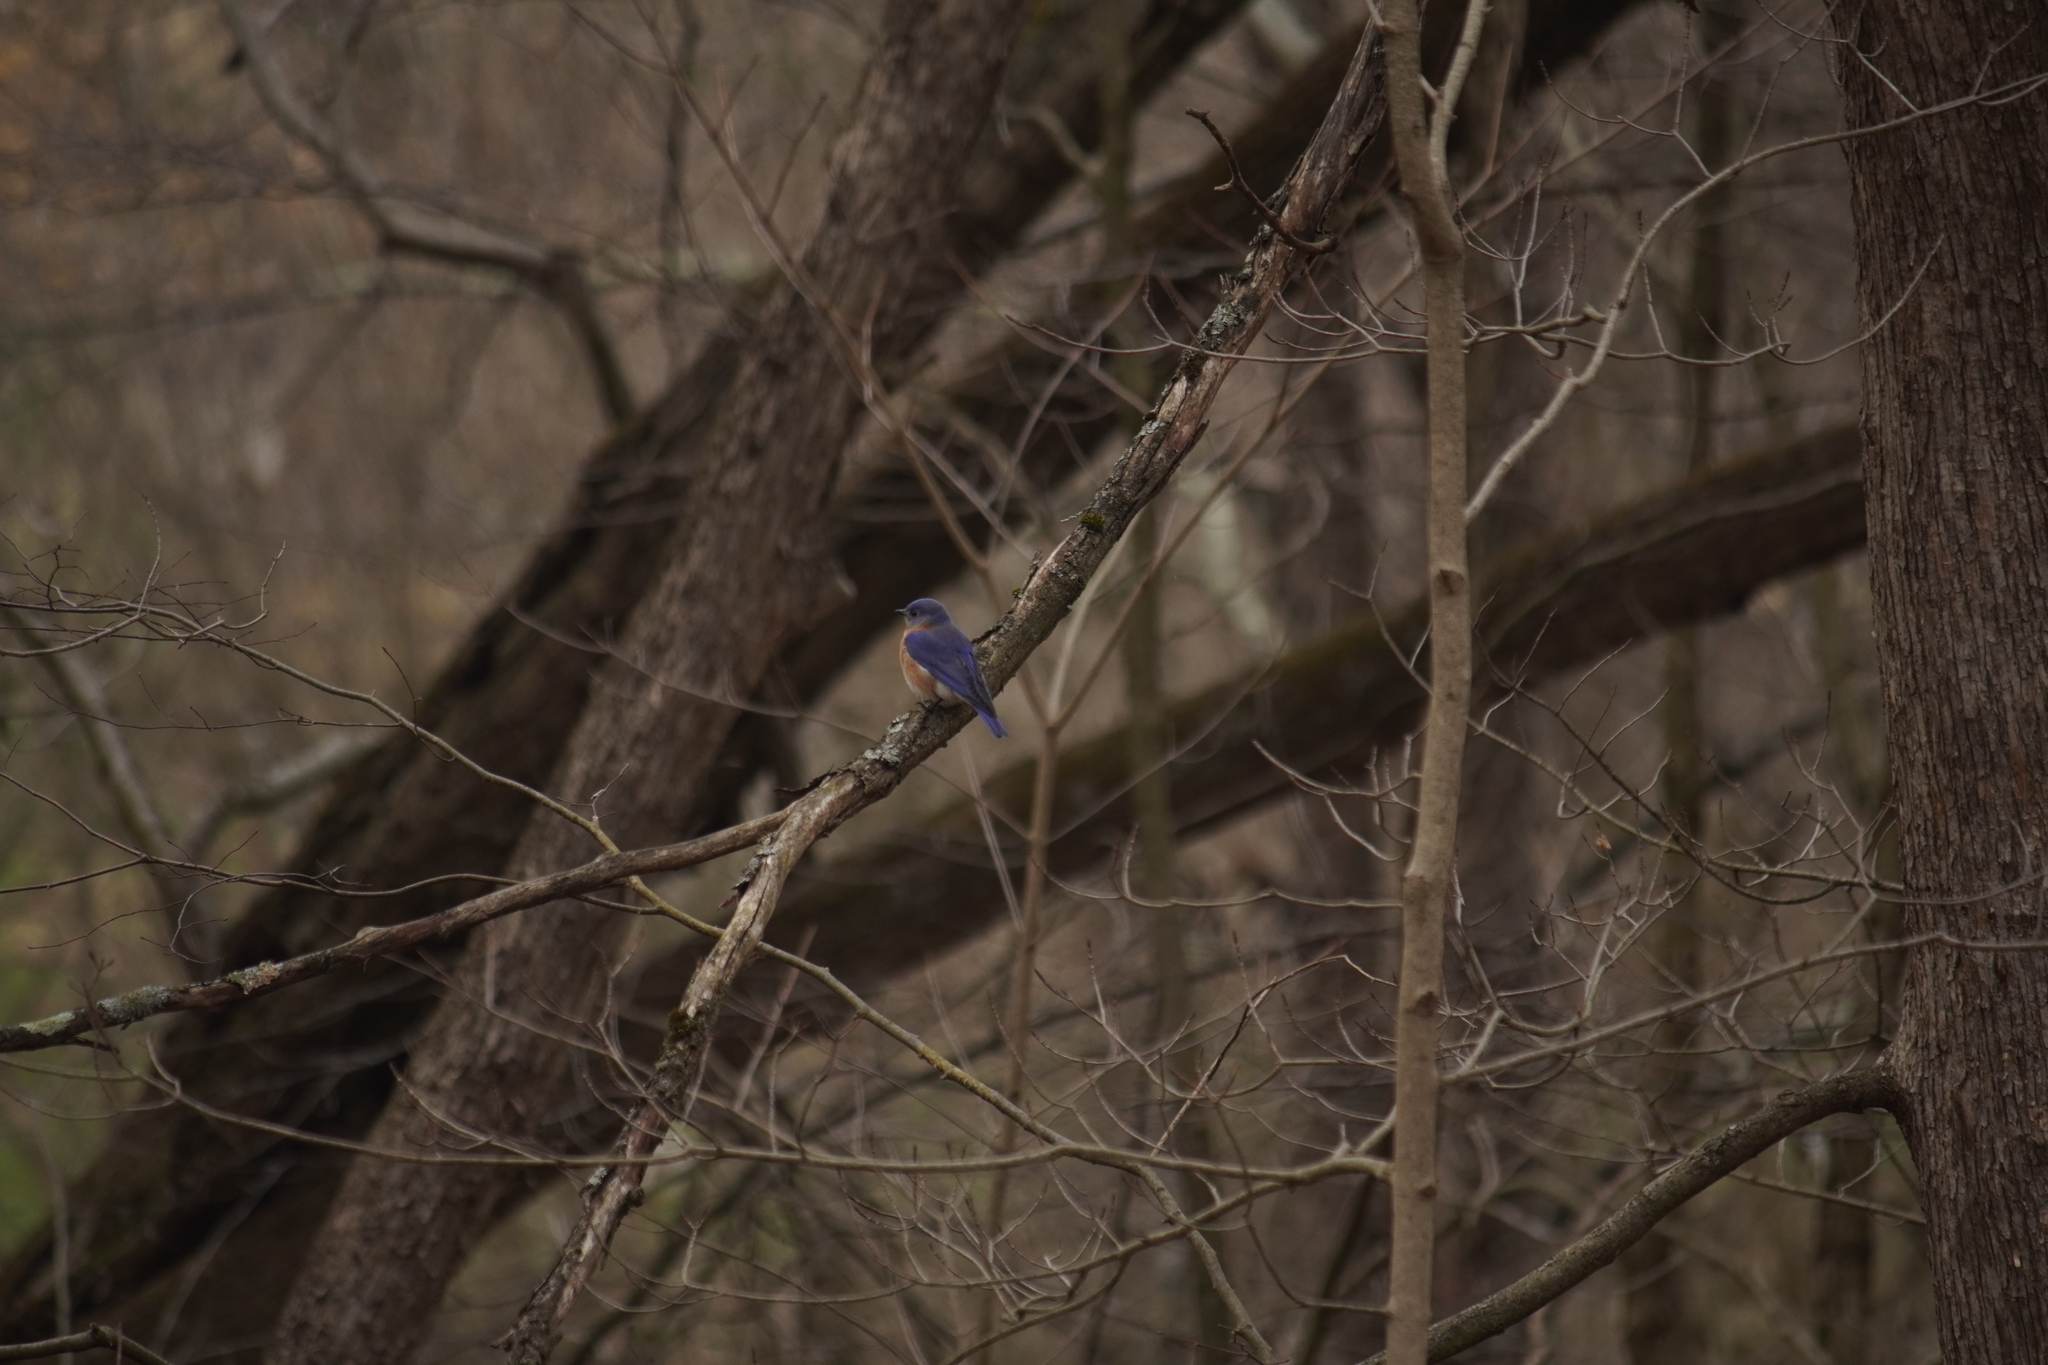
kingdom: Animalia
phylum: Chordata
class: Aves
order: Passeriformes
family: Turdidae
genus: Sialia
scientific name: Sialia sialis
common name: Eastern bluebird
